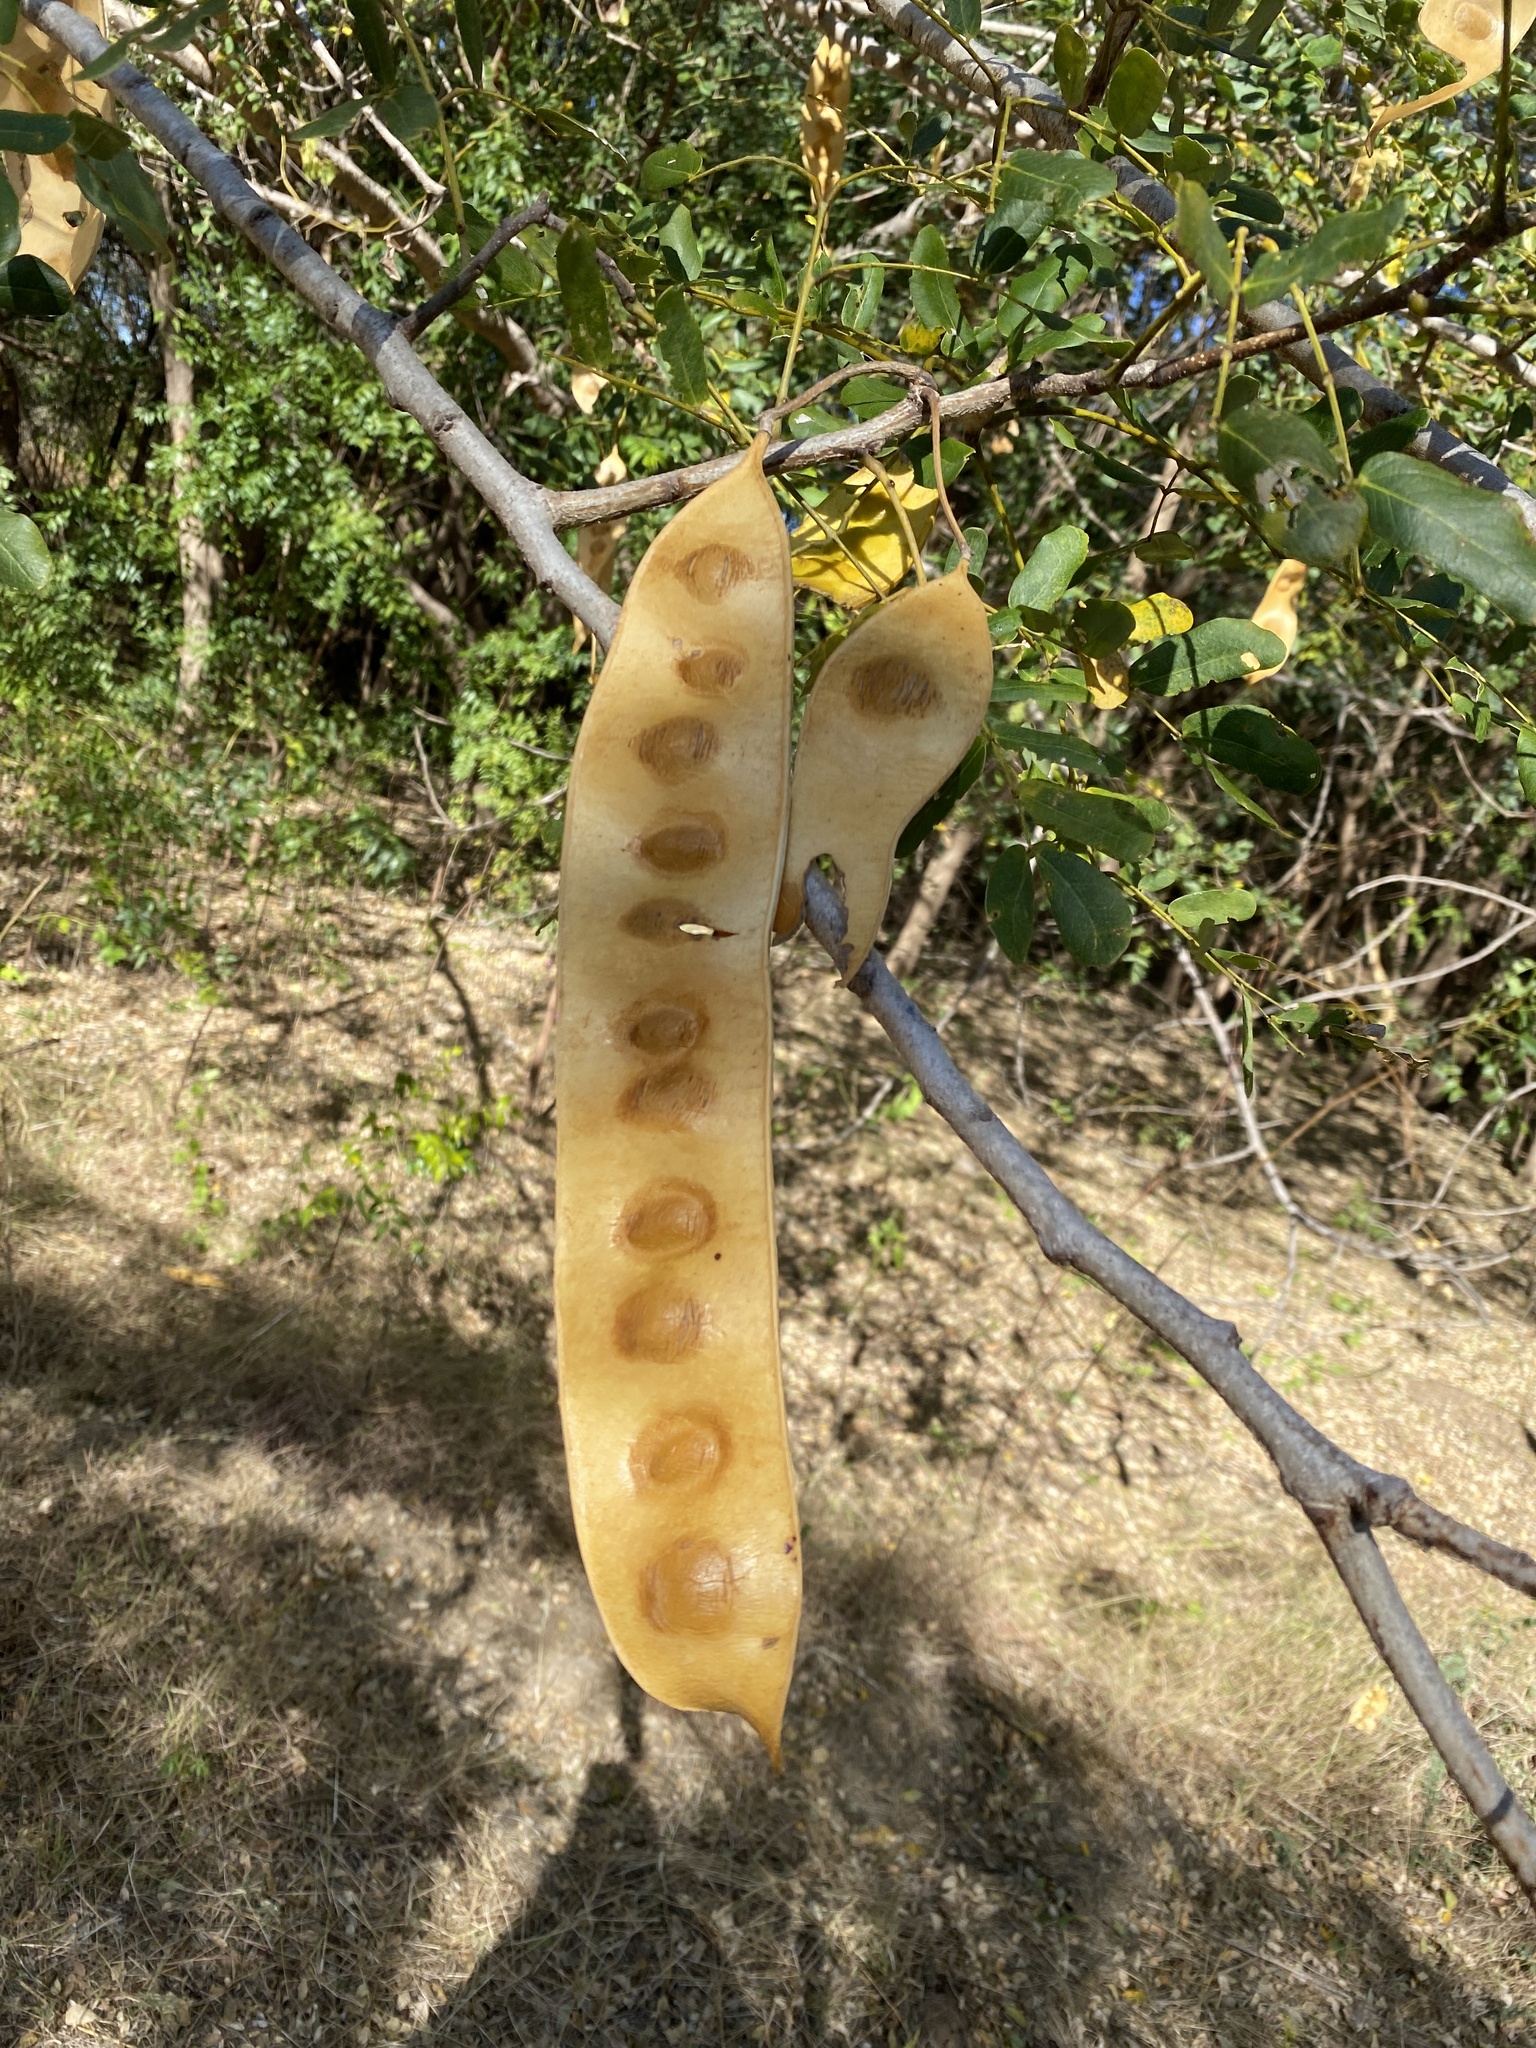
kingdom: Plantae
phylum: Tracheophyta
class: Magnoliopsida
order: Fabales
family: Fabaceae
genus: Albizia
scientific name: Albizia lebbeck
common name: Woman's tongue
